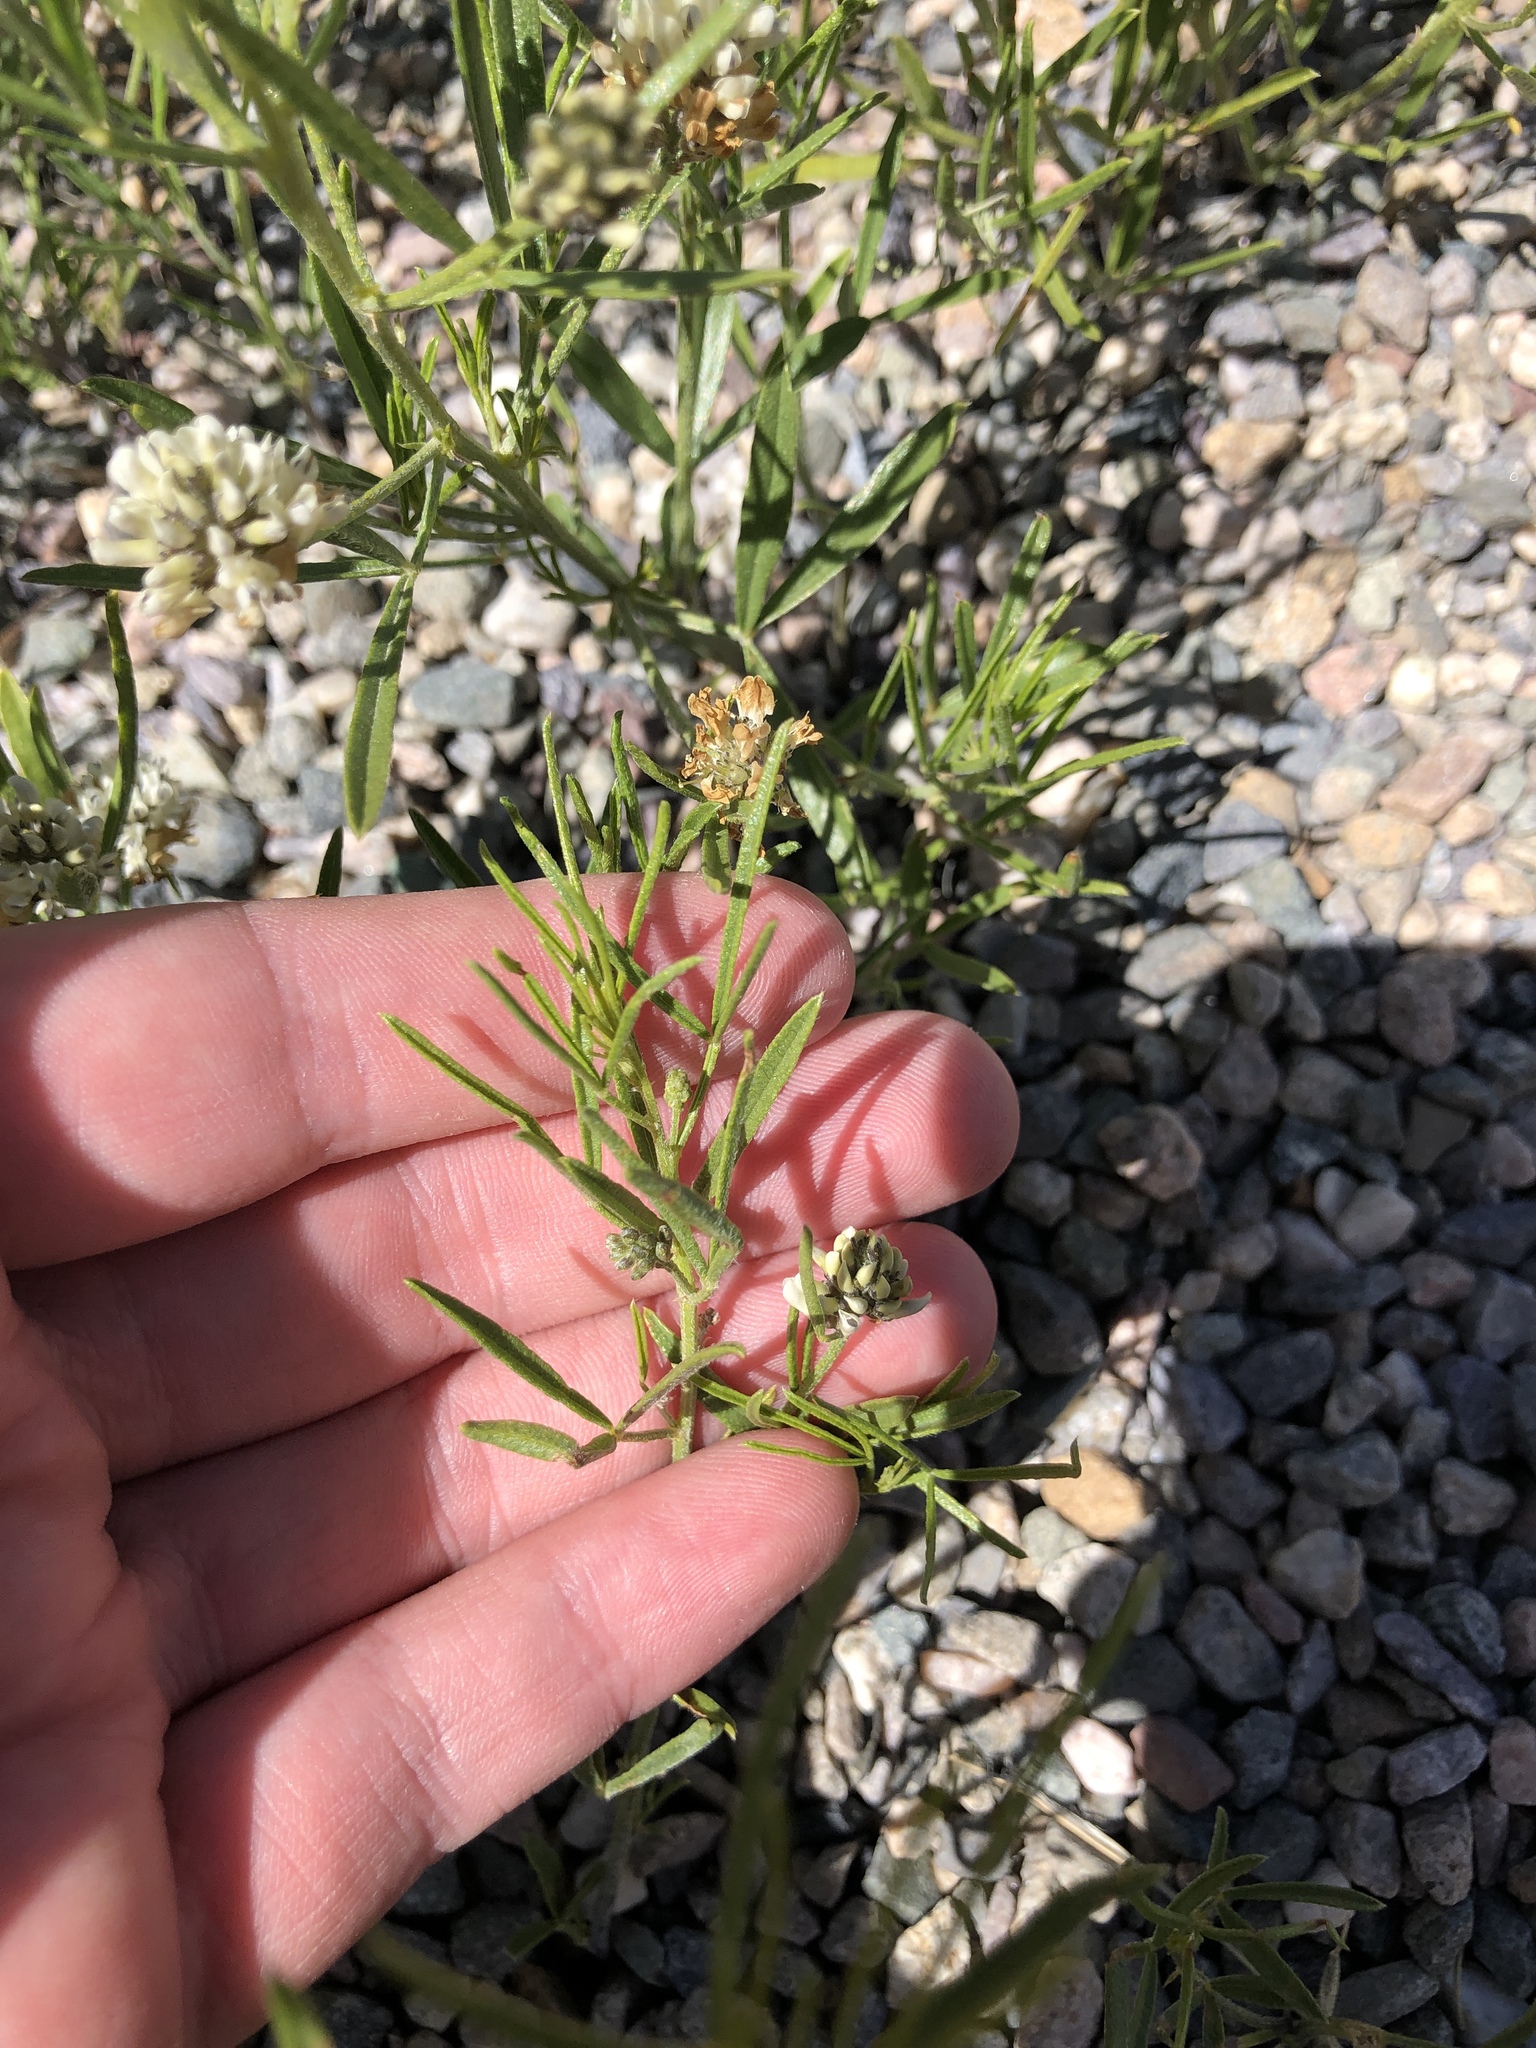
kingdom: Plantae
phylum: Tracheophyta
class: Magnoliopsida
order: Fabales
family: Fabaceae
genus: Ladeania
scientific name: Ladeania lanceolata
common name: Dune scurf-pea
